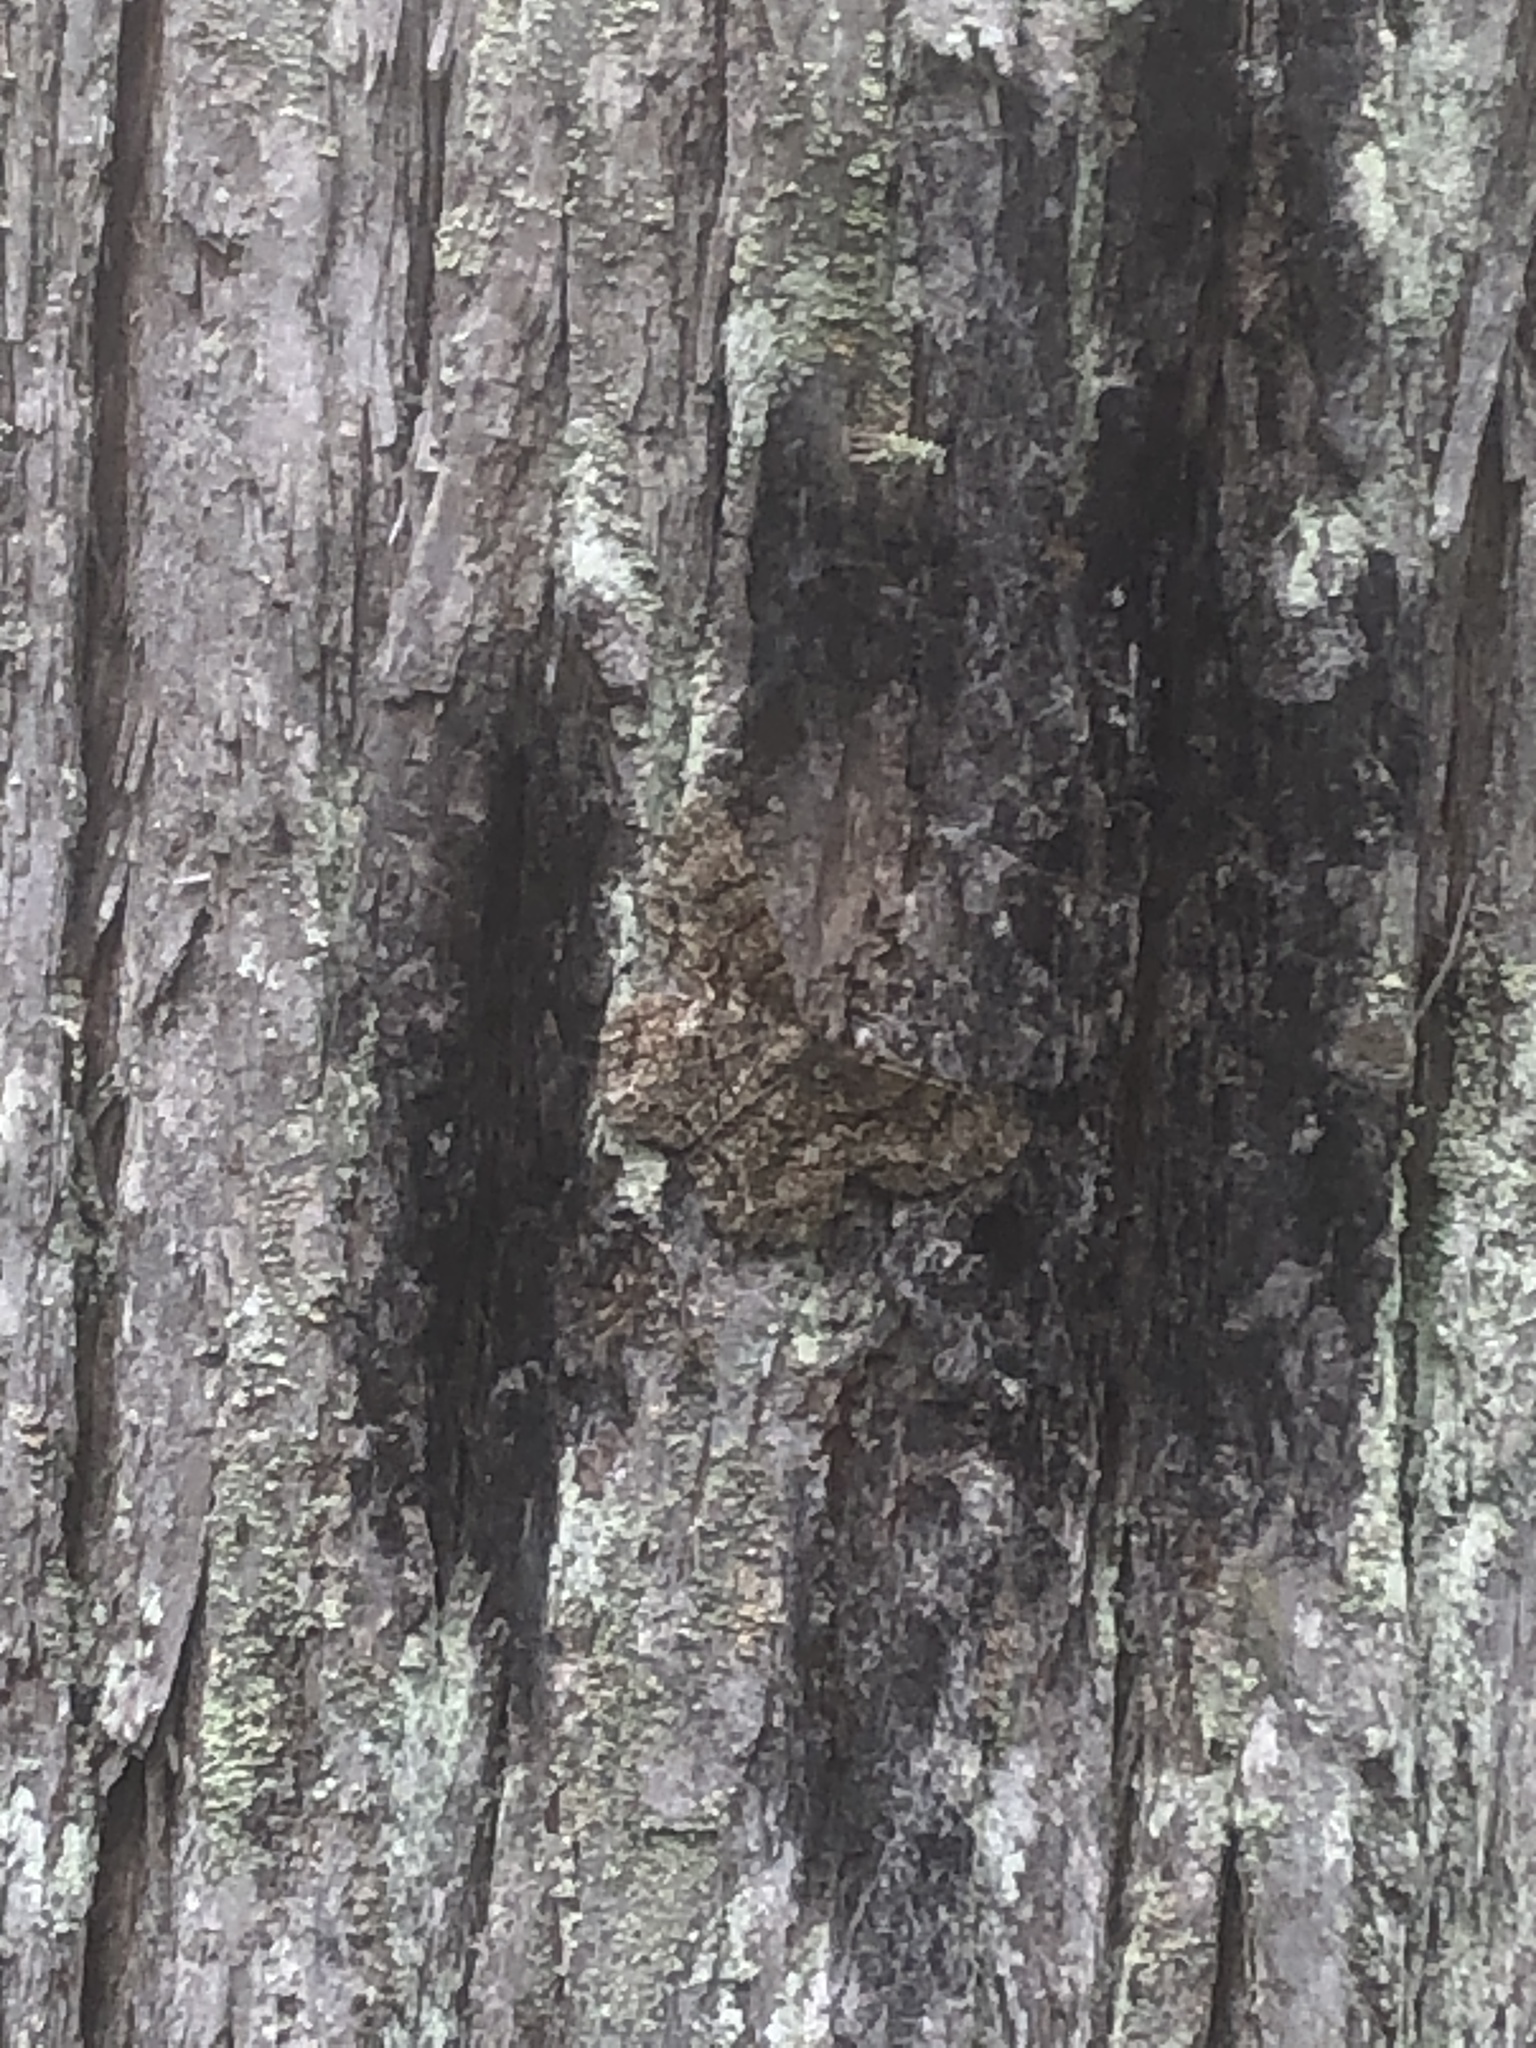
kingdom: Animalia
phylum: Arthropoda
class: Insecta
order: Lepidoptera
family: Geometridae
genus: Epimecis
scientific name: Epimecis hortaria
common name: Tulip-tree beauty
